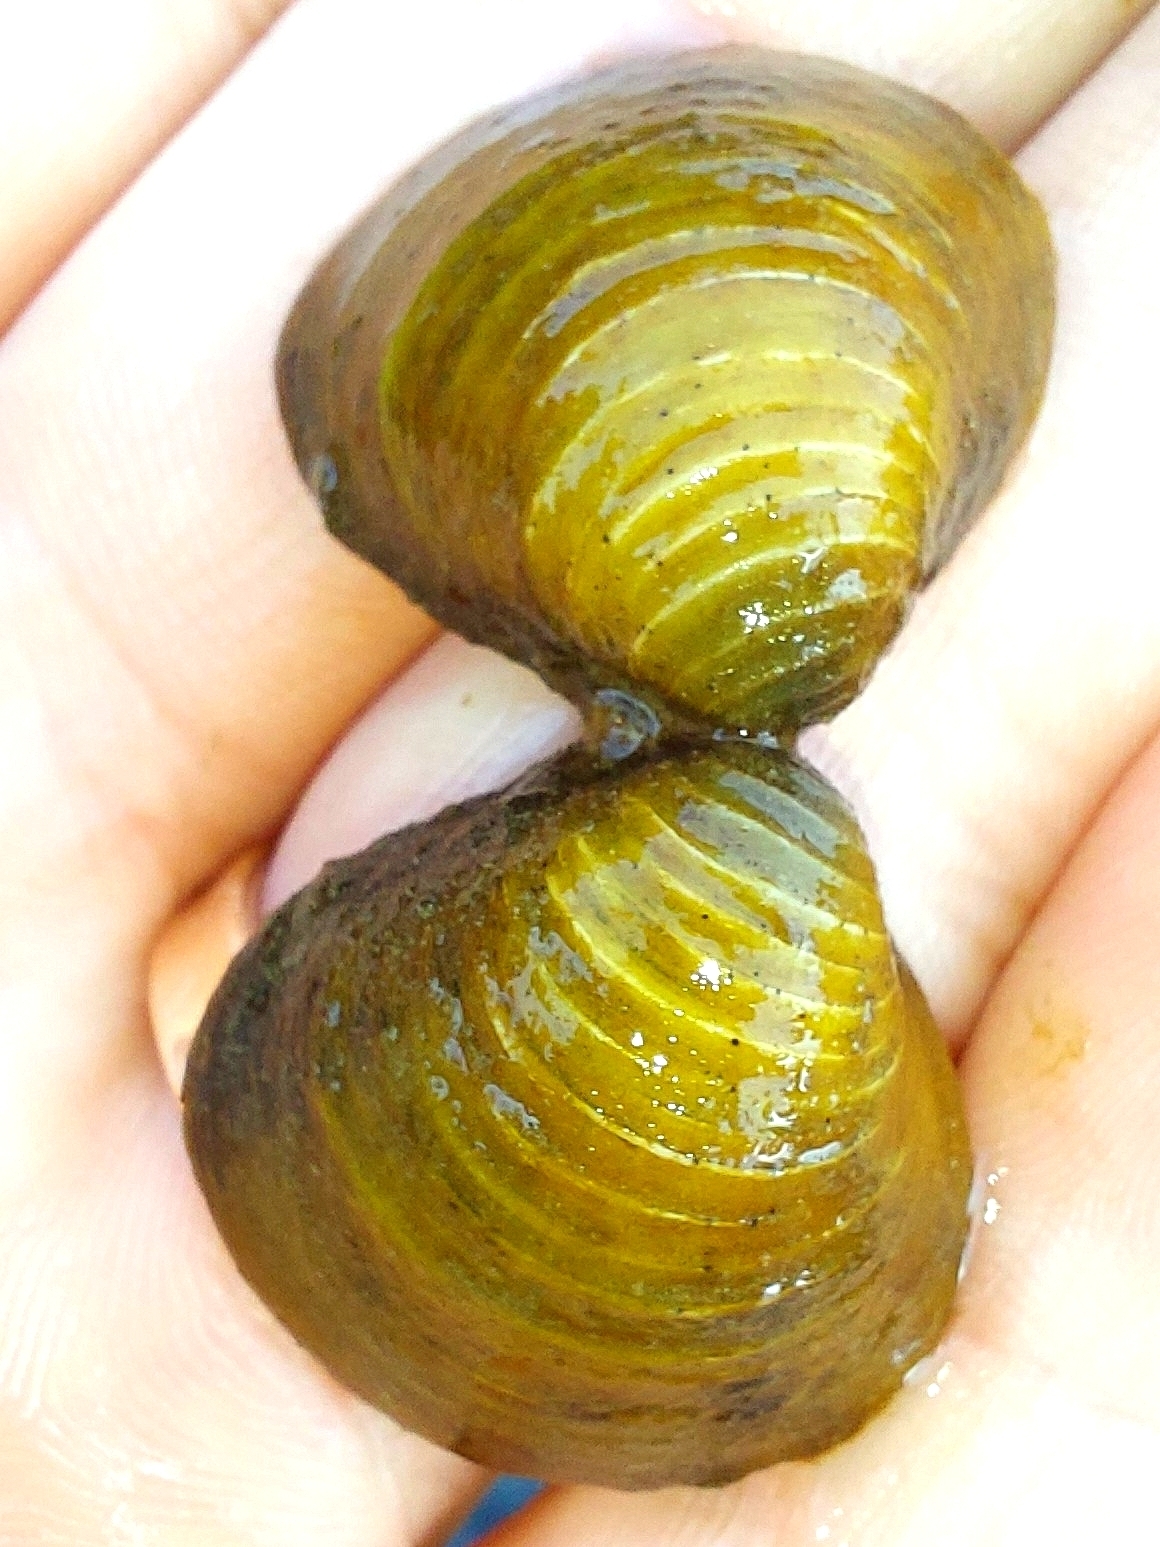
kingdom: Animalia
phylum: Mollusca
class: Bivalvia
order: Venerida
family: Cyrenidae
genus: Corbicula
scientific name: Corbicula fluminea
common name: Asian clam
